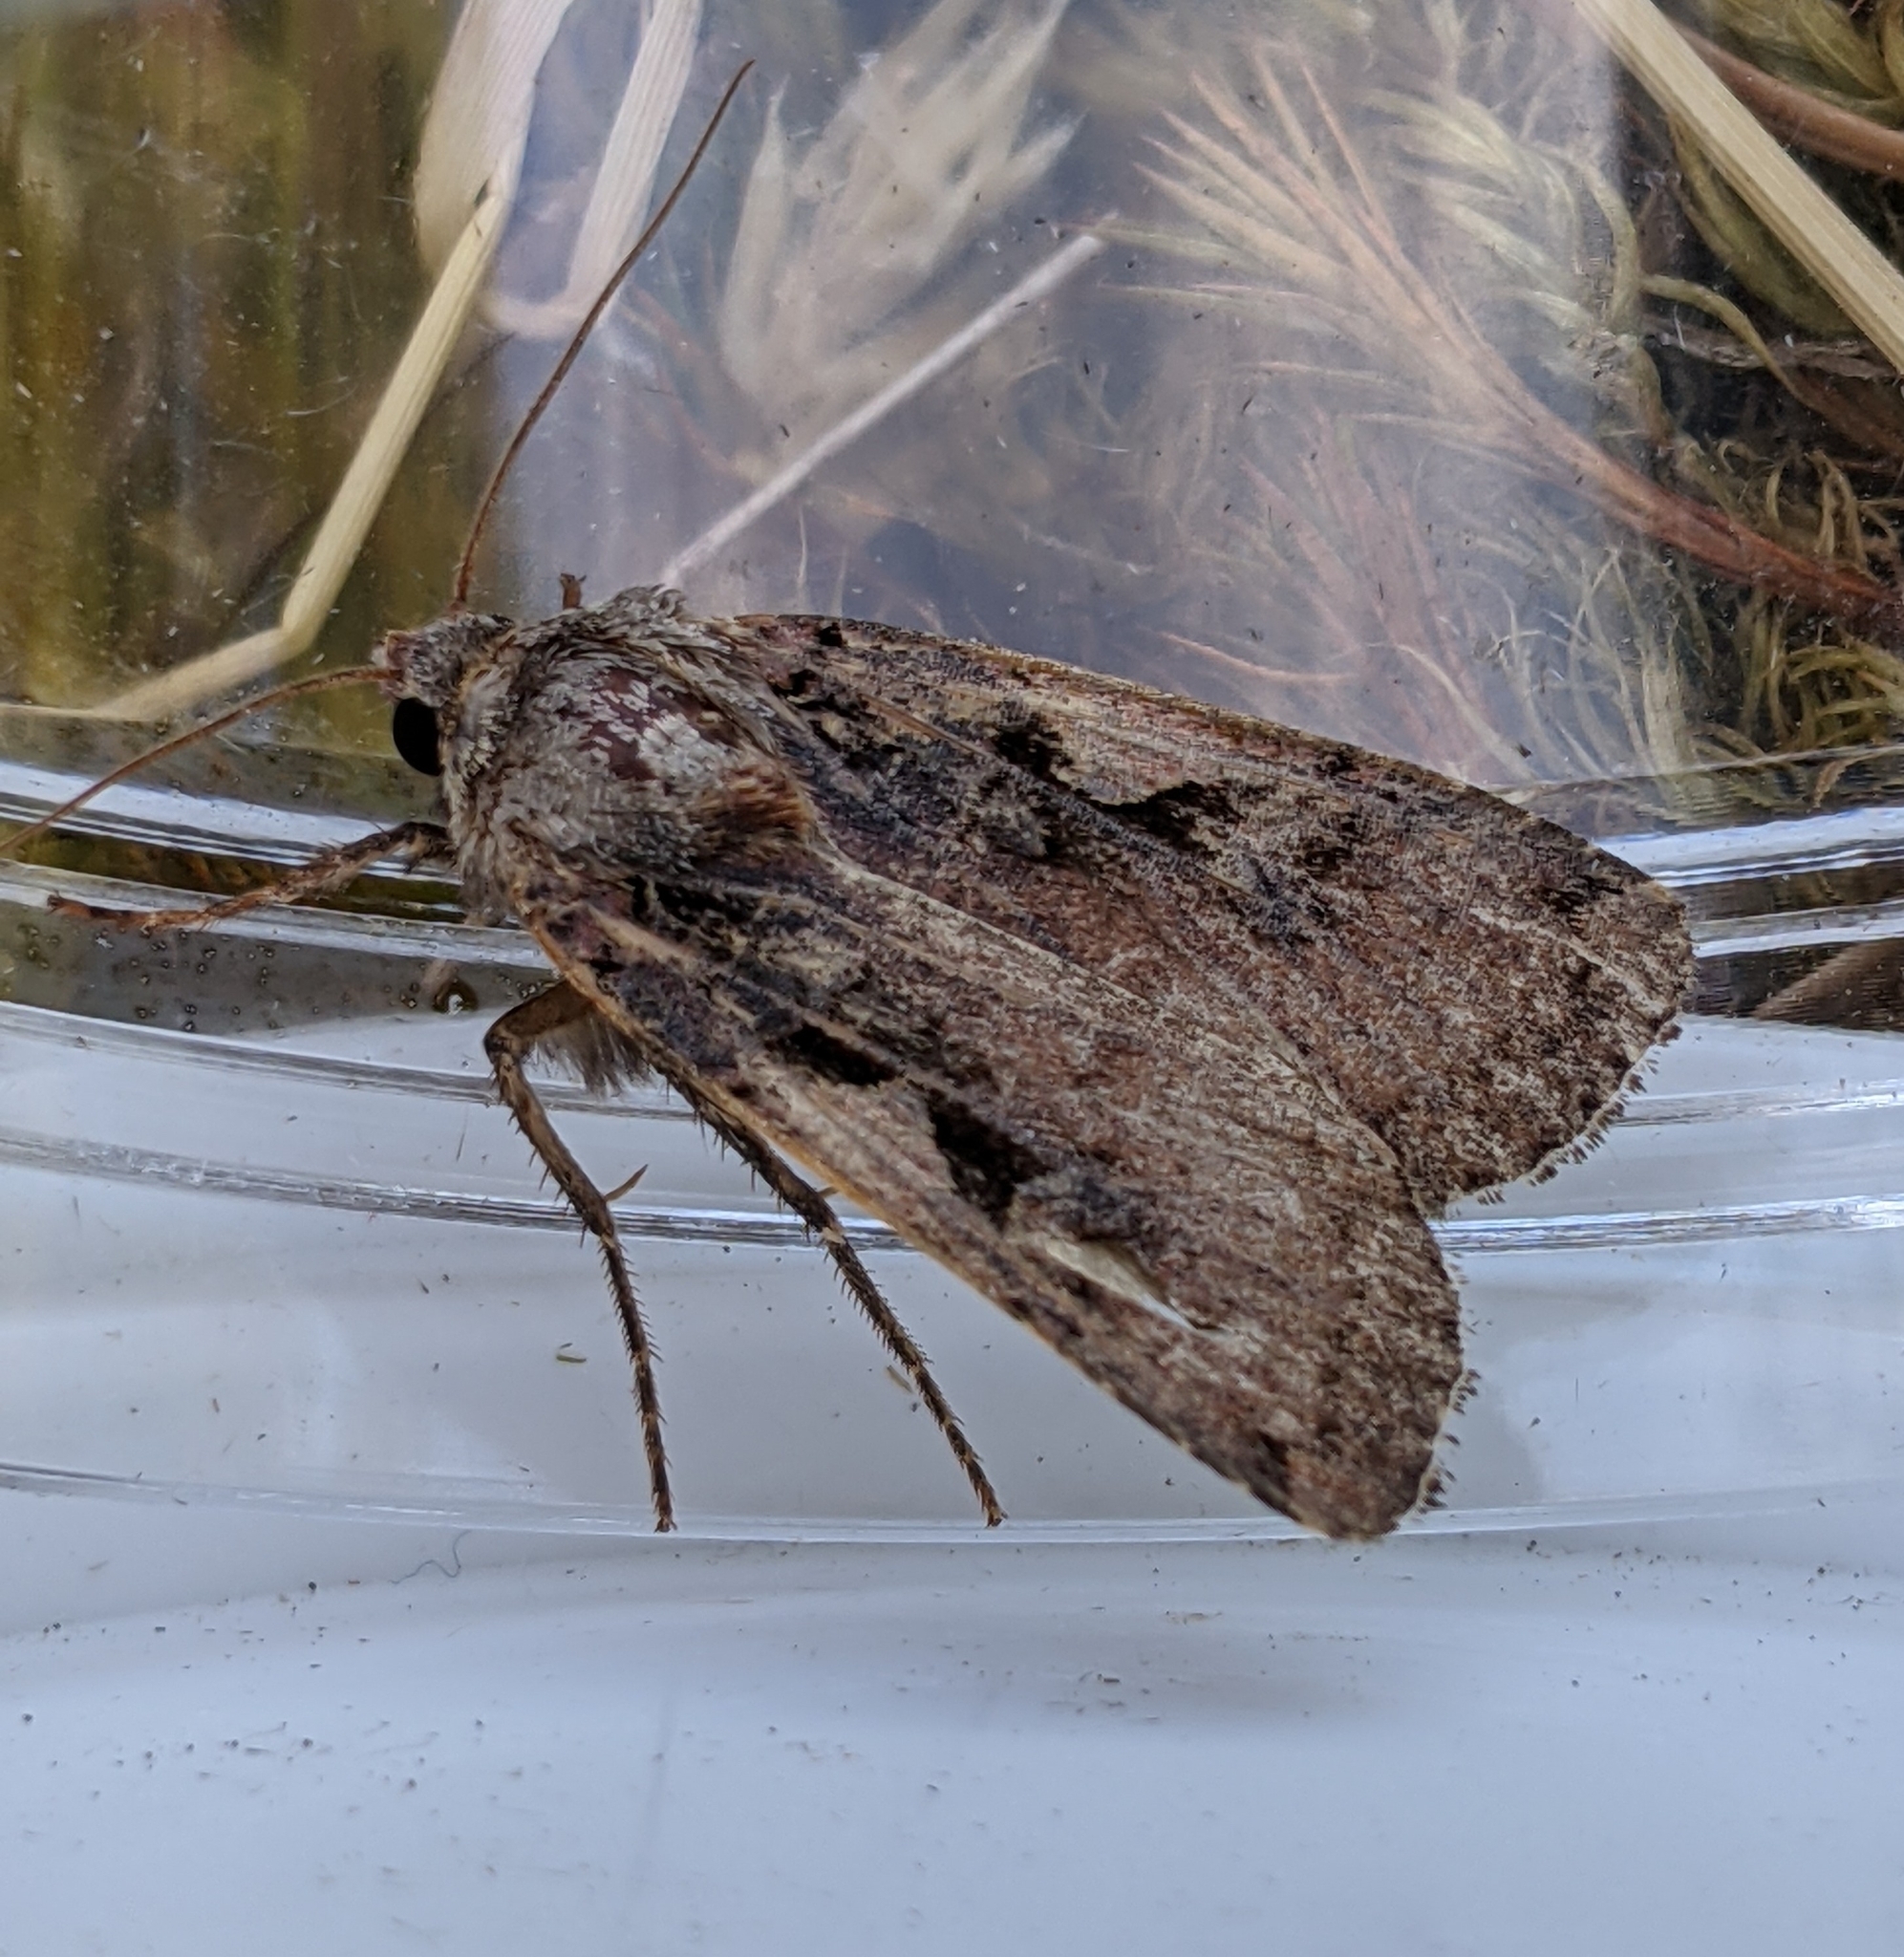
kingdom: Animalia
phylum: Arthropoda
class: Insecta
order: Lepidoptera
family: Noctuidae
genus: Xestia
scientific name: Xestia c-nigrum
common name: Setaceous hebrew character
